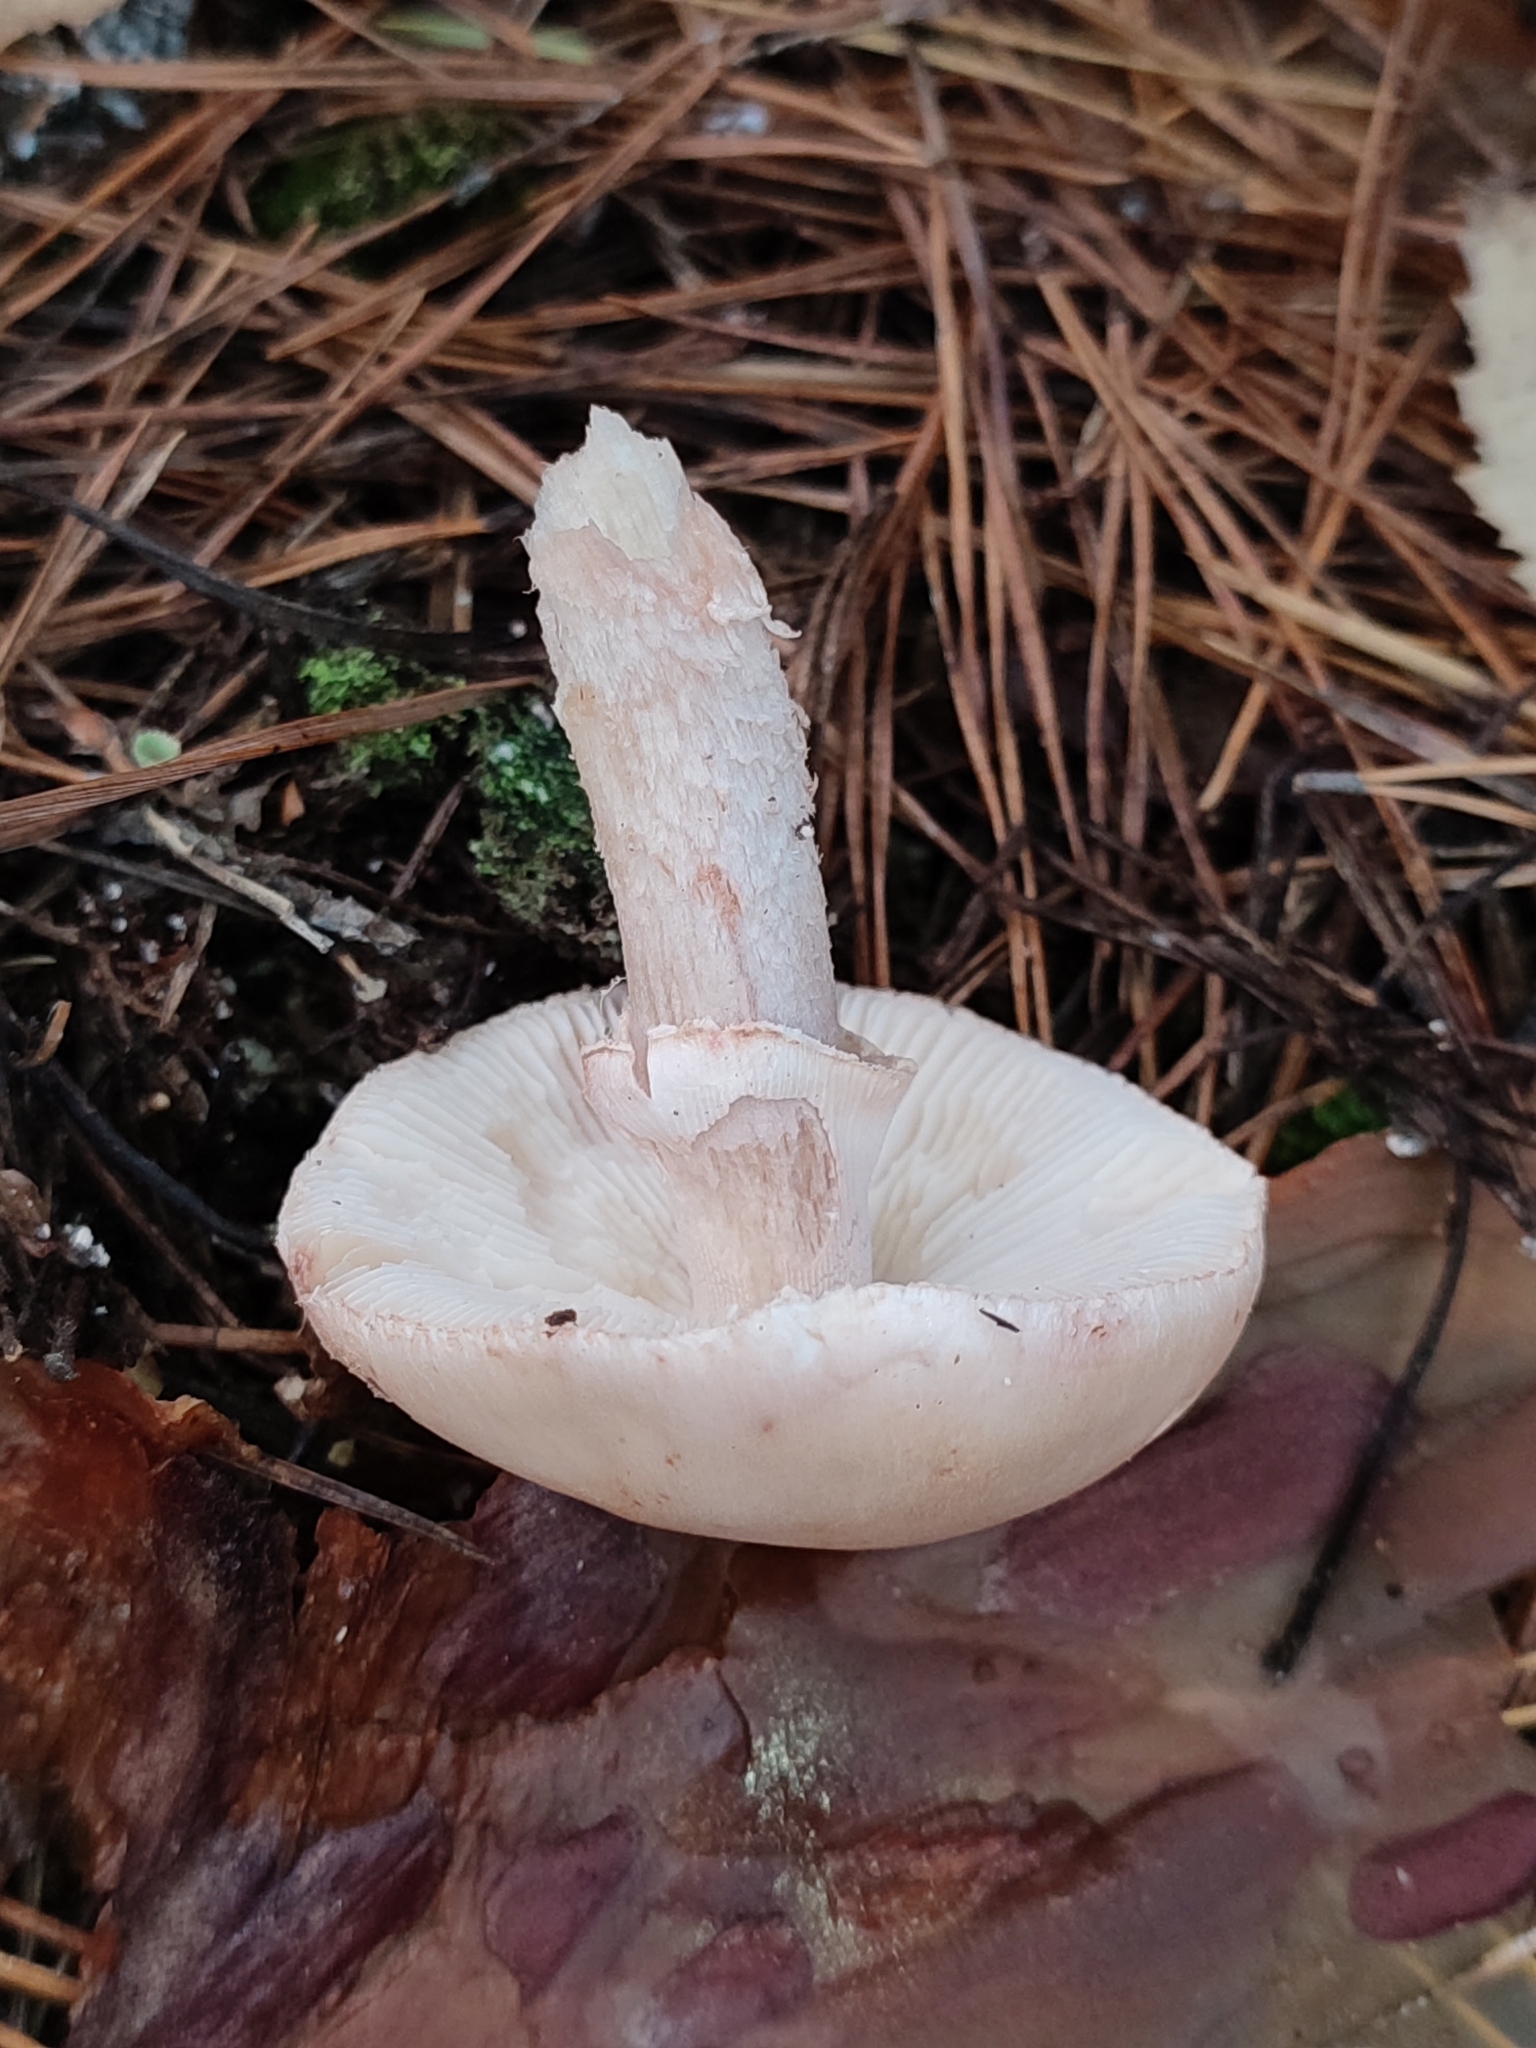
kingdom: Fungi
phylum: Basidiomycota
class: Agaricomycetes
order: Agaricales
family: Amanitaceae
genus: Amanita
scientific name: Amanita rubescens
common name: Blusher
